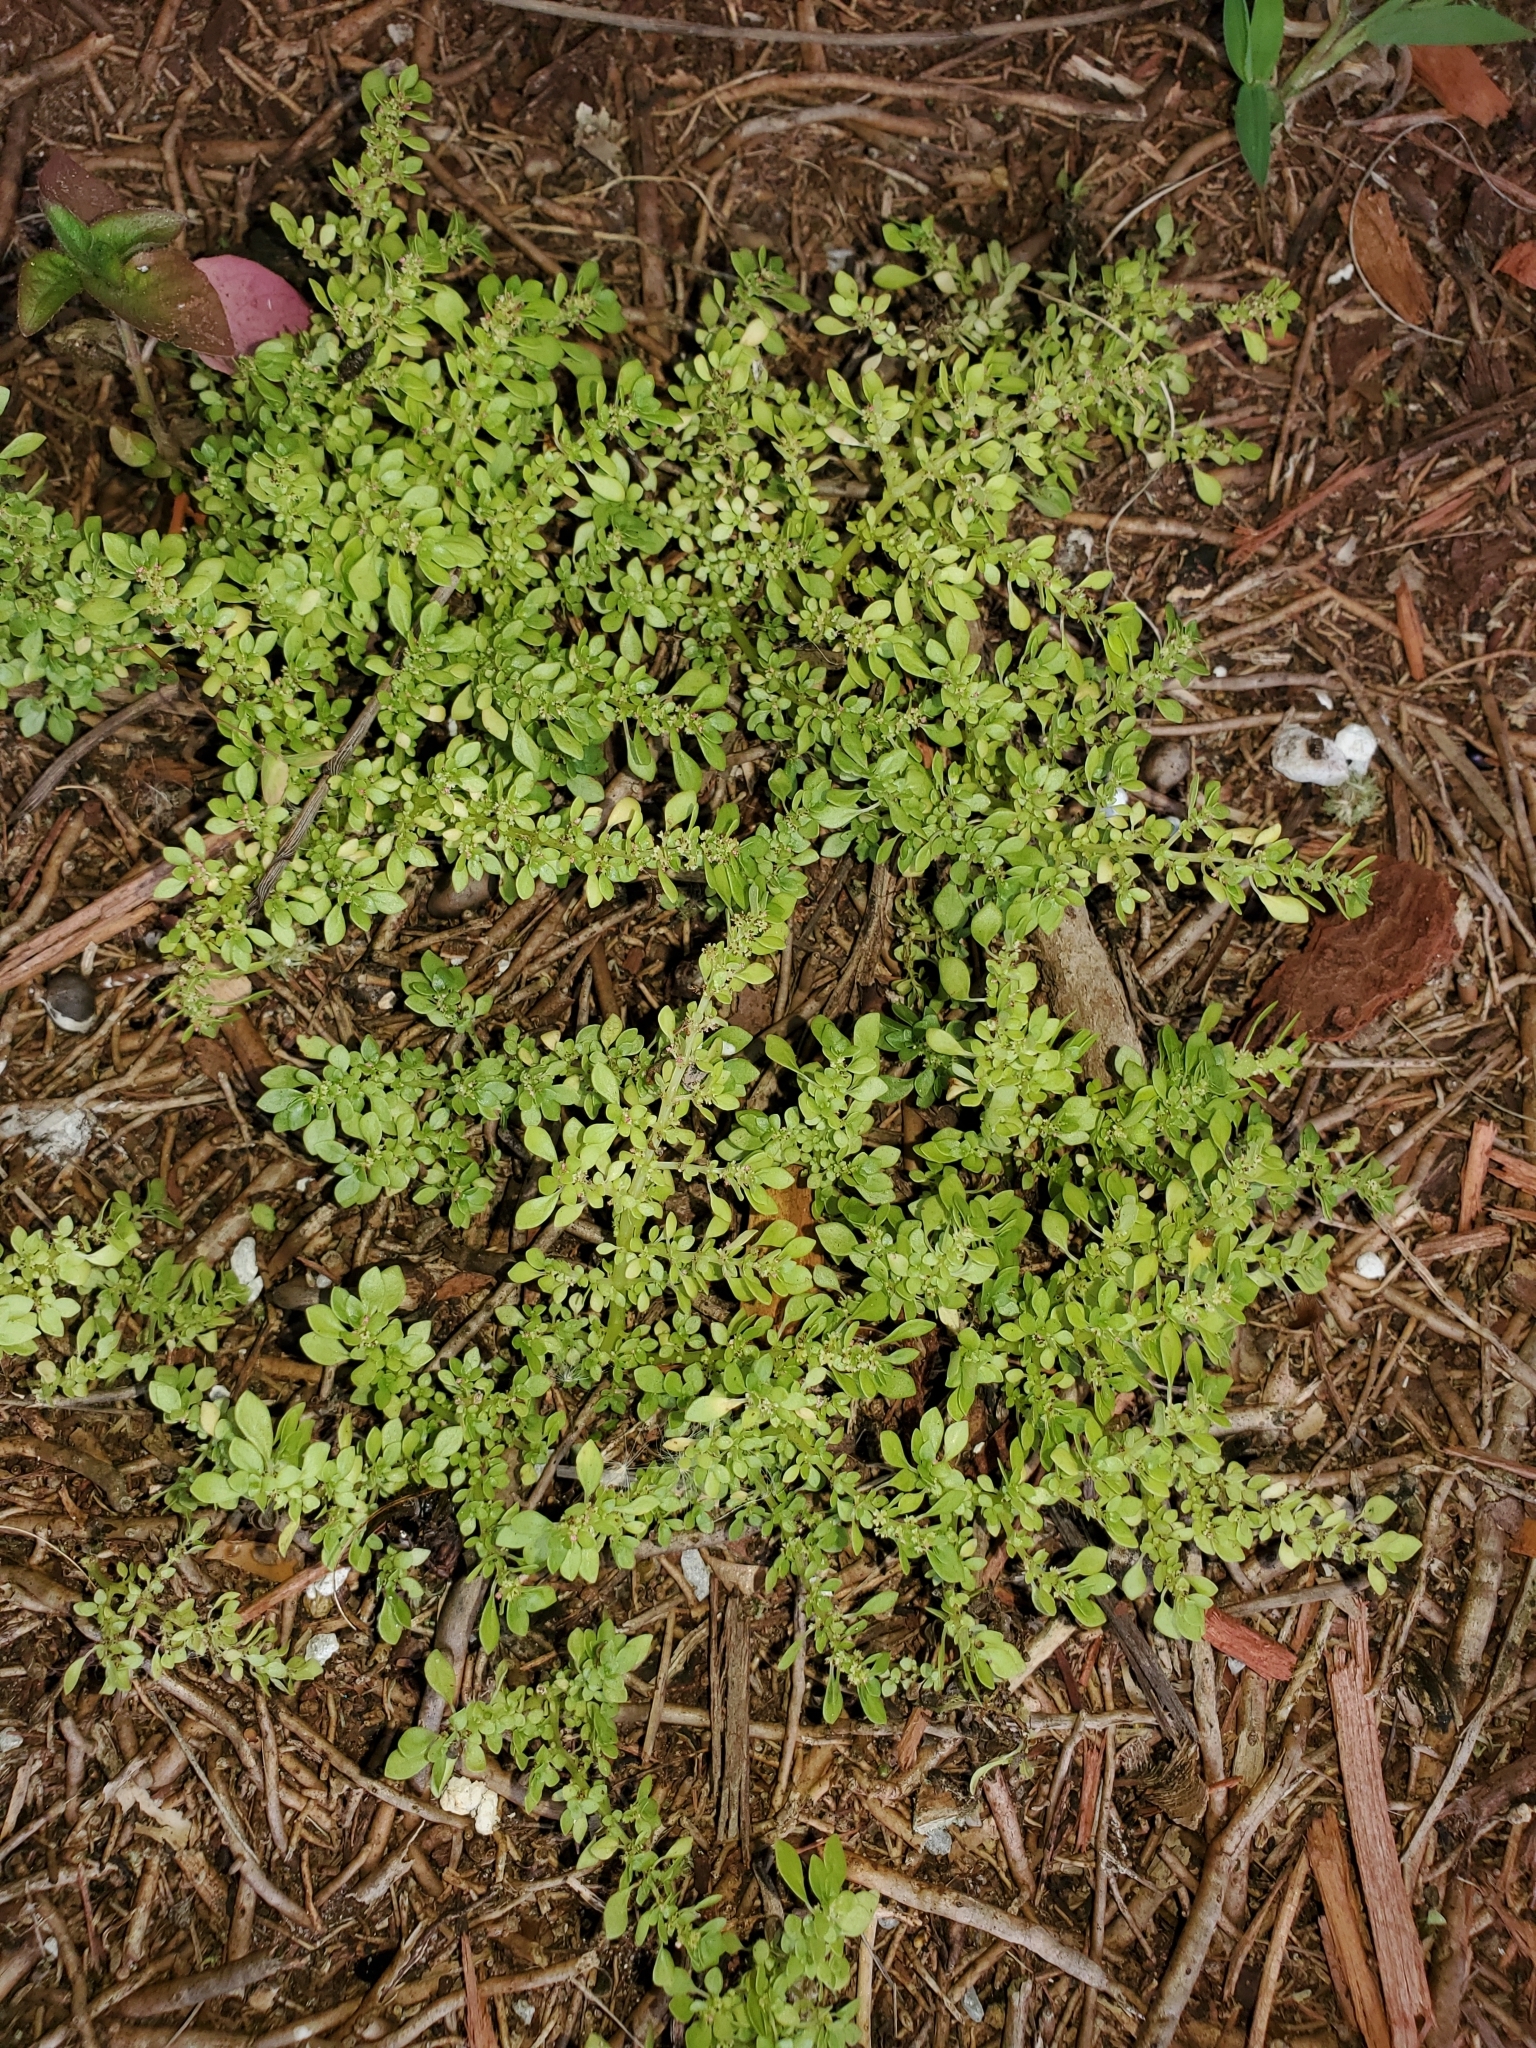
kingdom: Plantae
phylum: Tracheophyta
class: Magnoliopsida
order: Rosales
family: Urticaceae
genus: Pilea
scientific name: Pilea microphylla
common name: Artillery-plant
